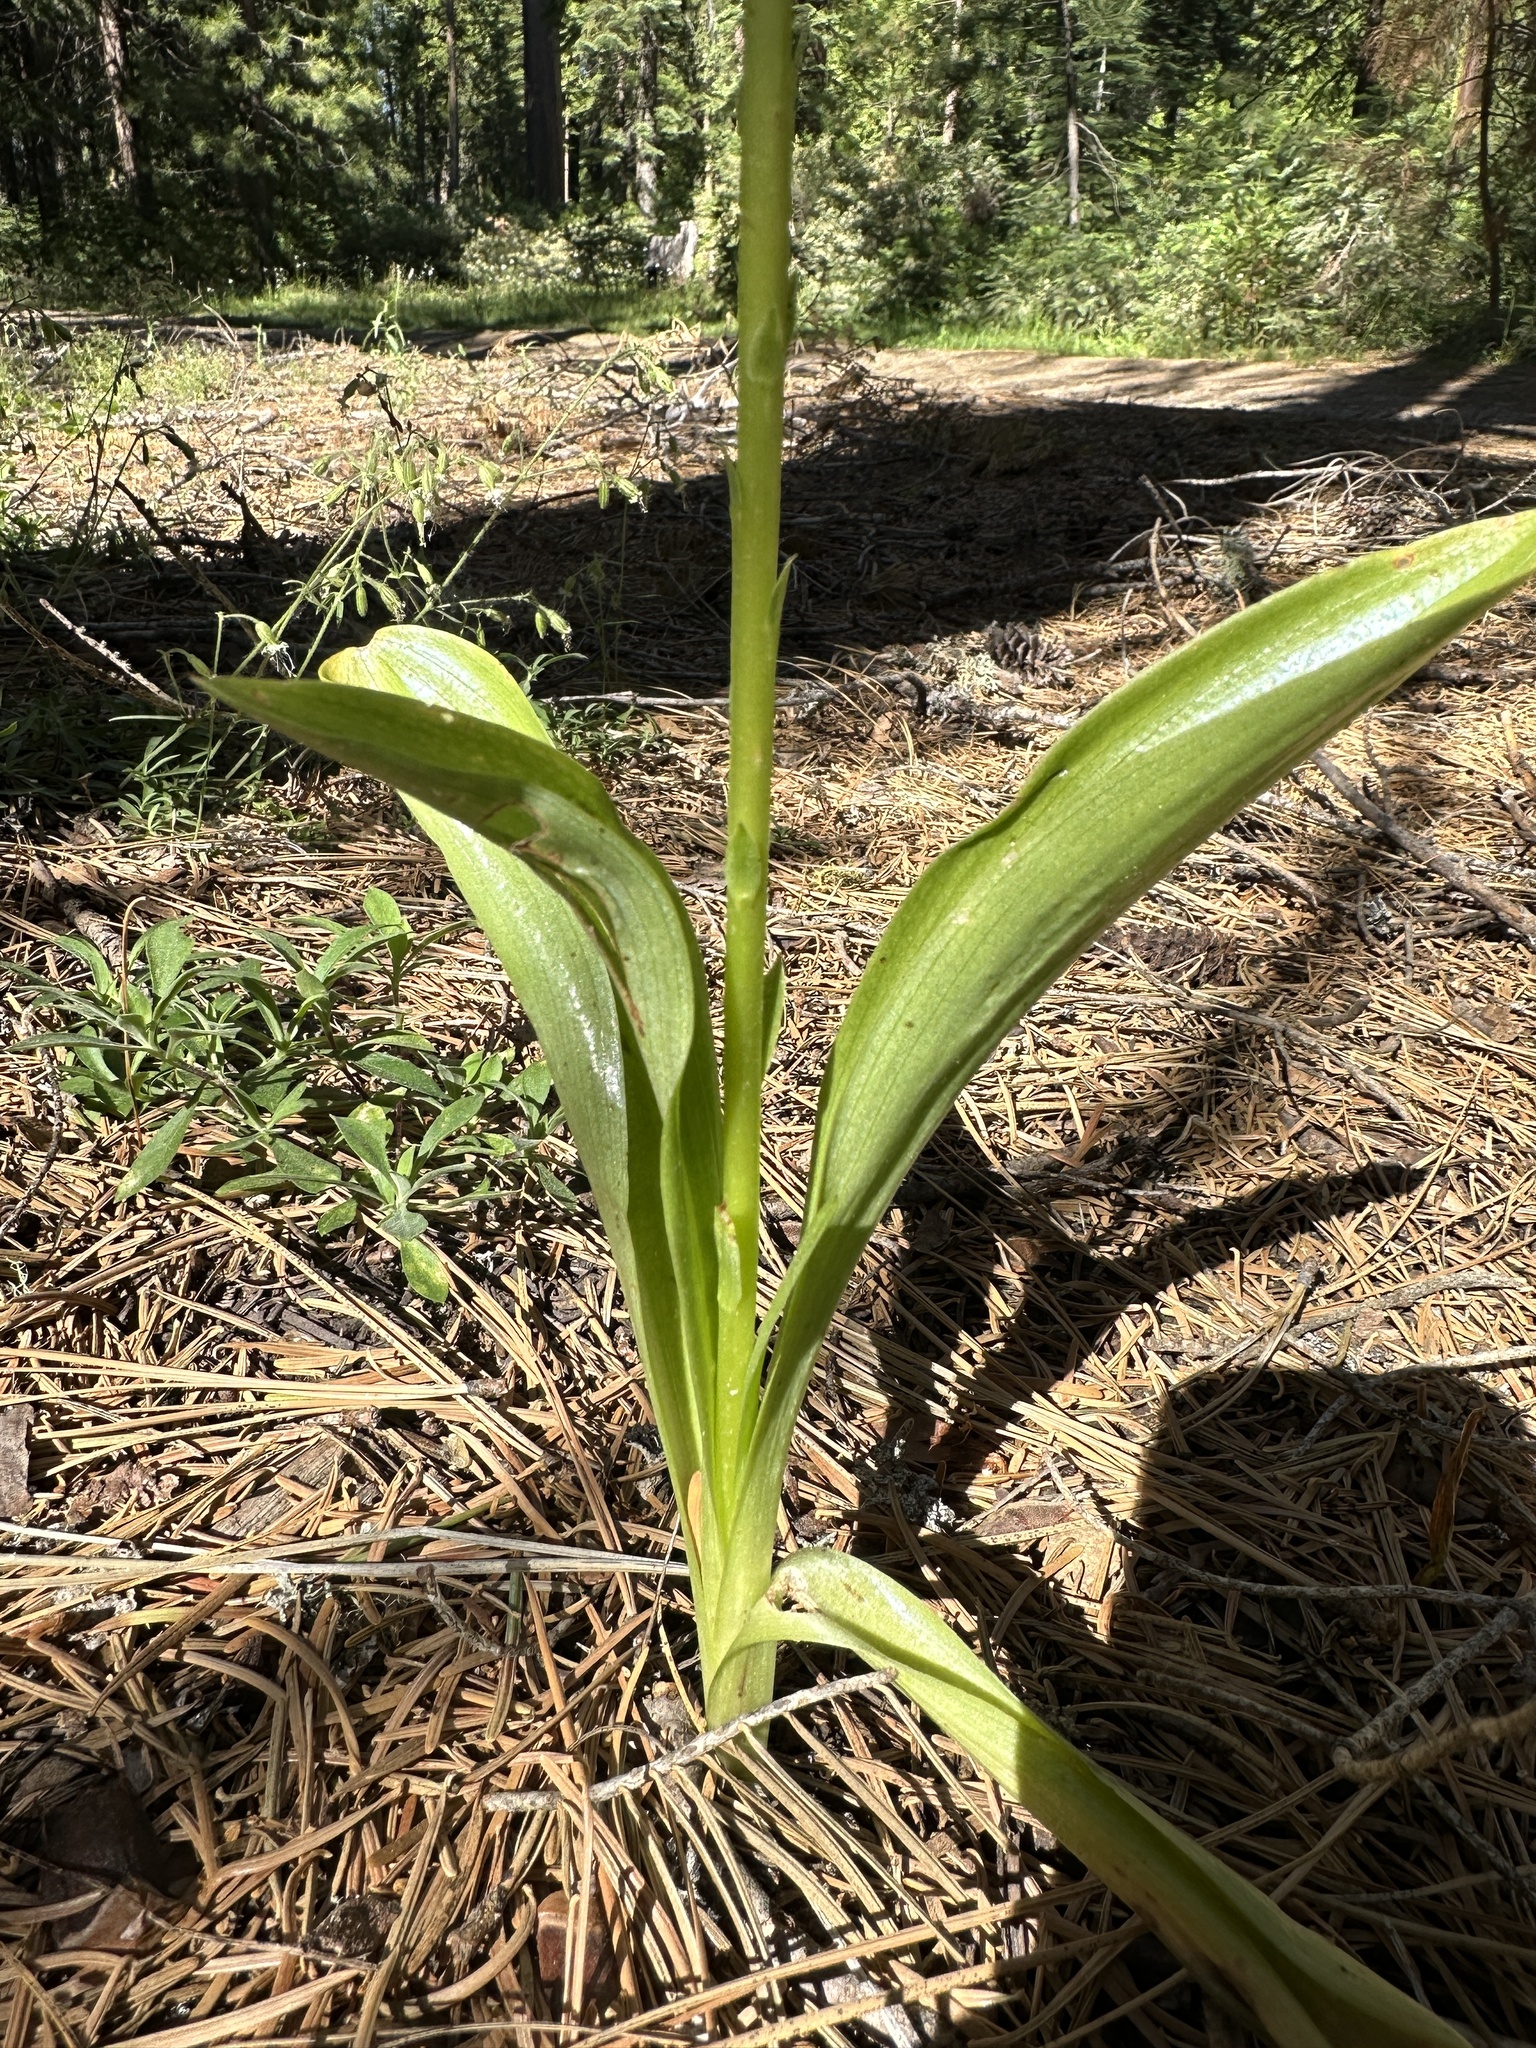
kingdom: Plantae
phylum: Tracheophyta
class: Liliopsida
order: Asparagales
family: Orchidaceae
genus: Platanthera
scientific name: Platanthera unalascensis
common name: Alaska bog orchid
